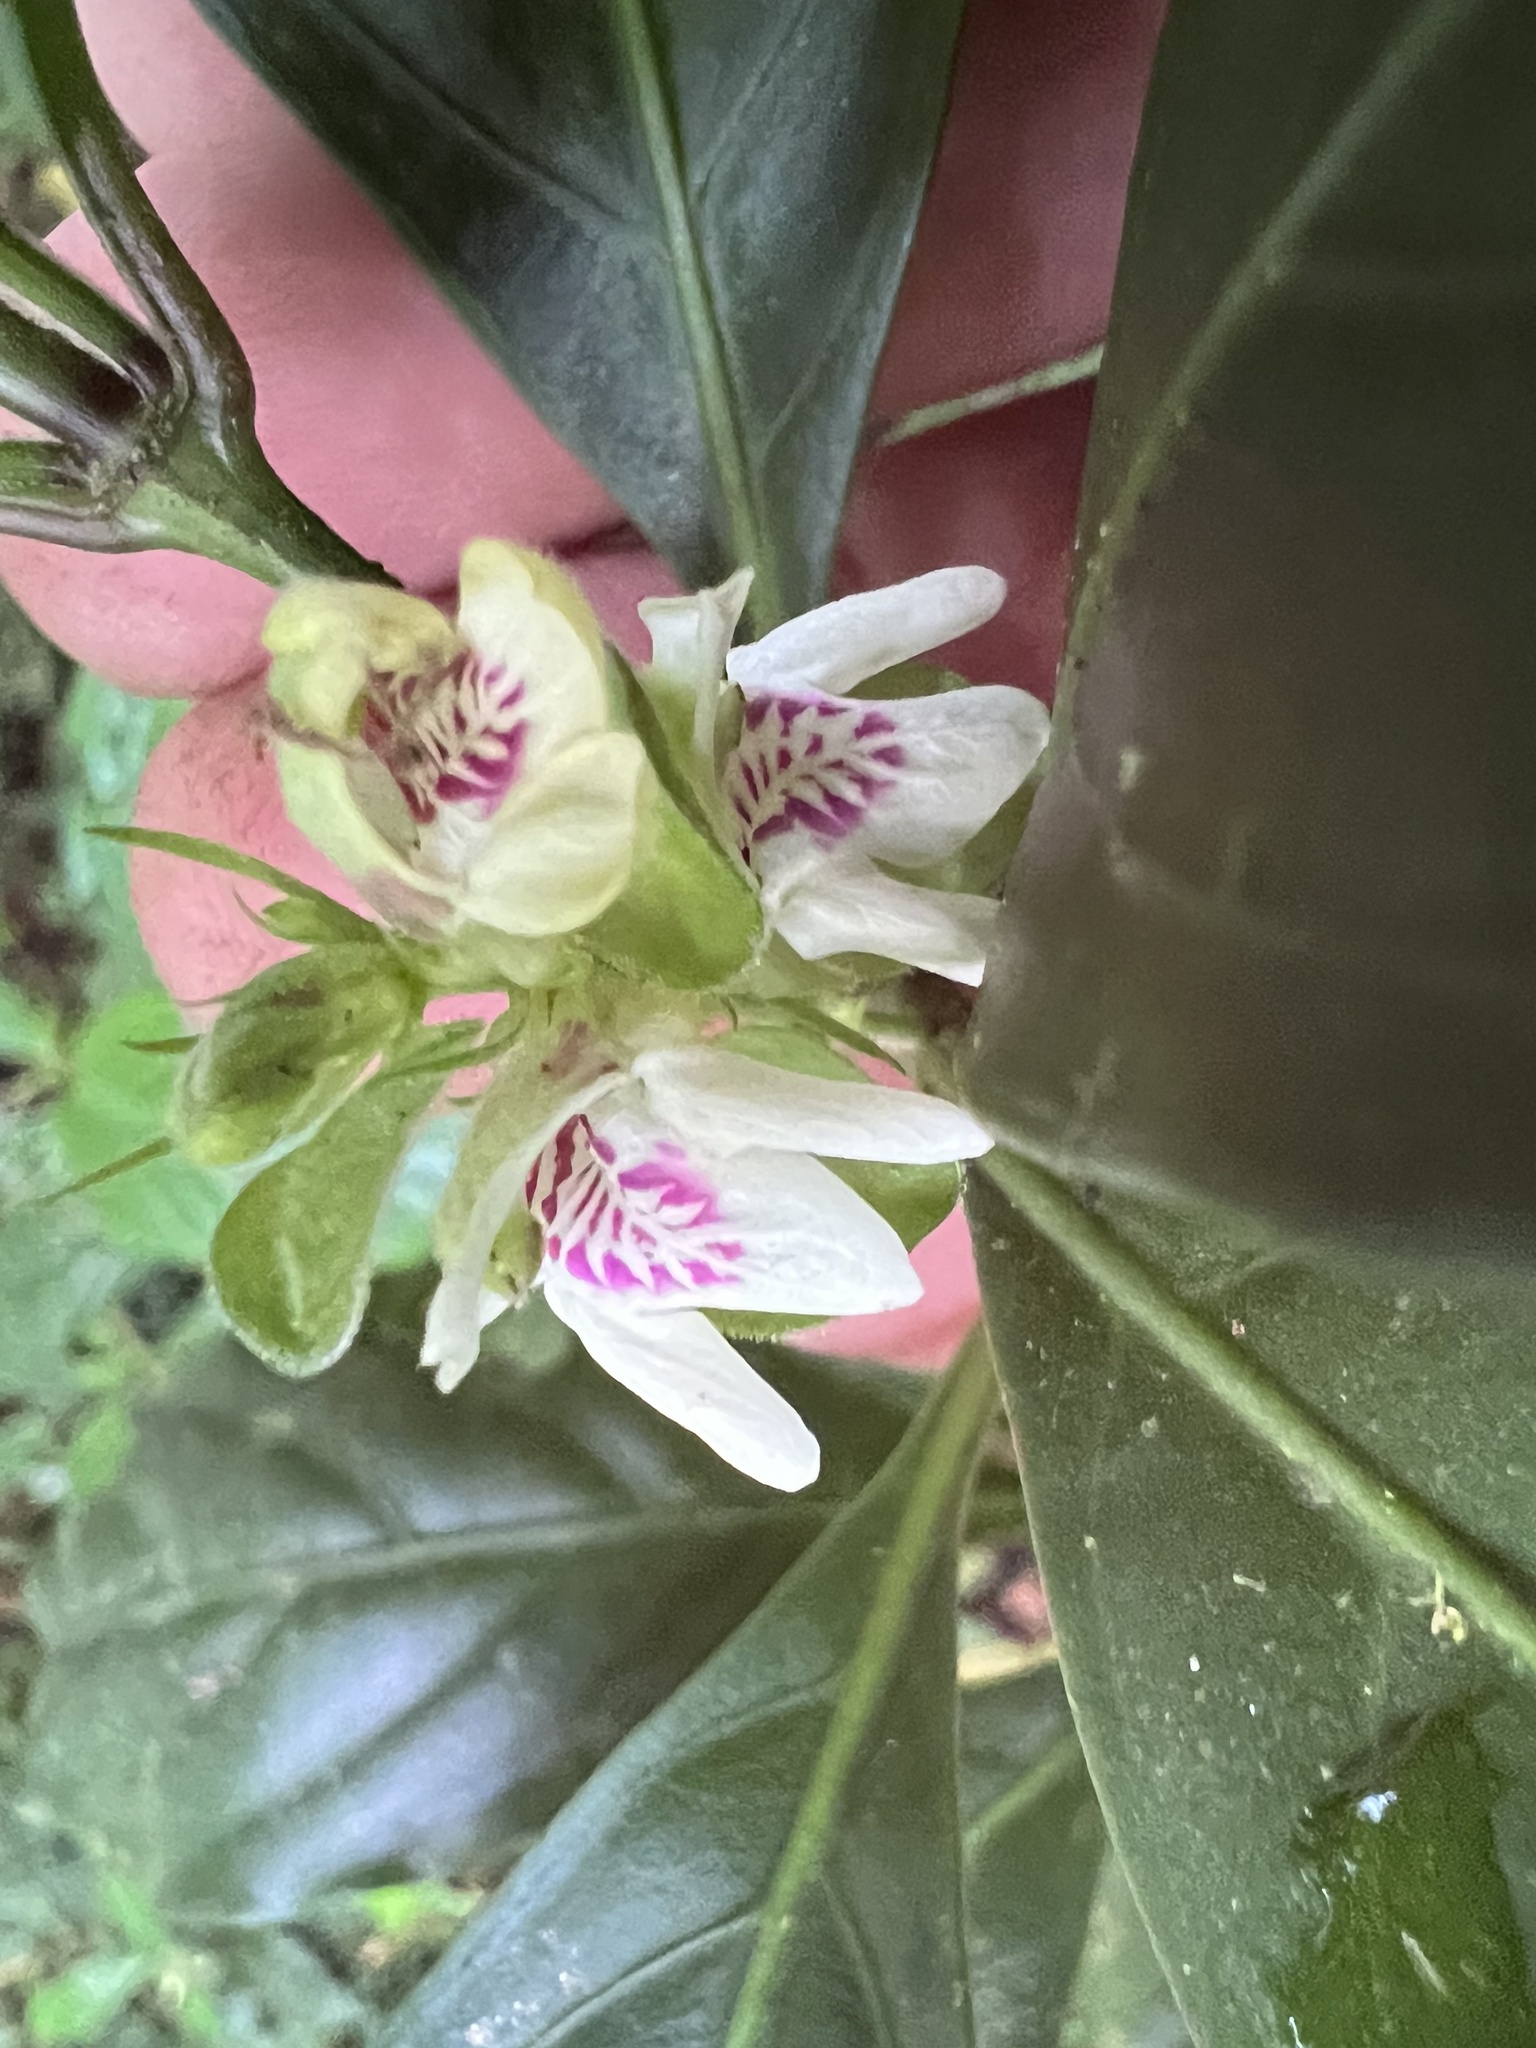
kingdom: Plantae
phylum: Tracheophyta
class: Magnoliopsida
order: Lamiales
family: Acanthaceae
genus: Justicia
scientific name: Justicia costaricana
